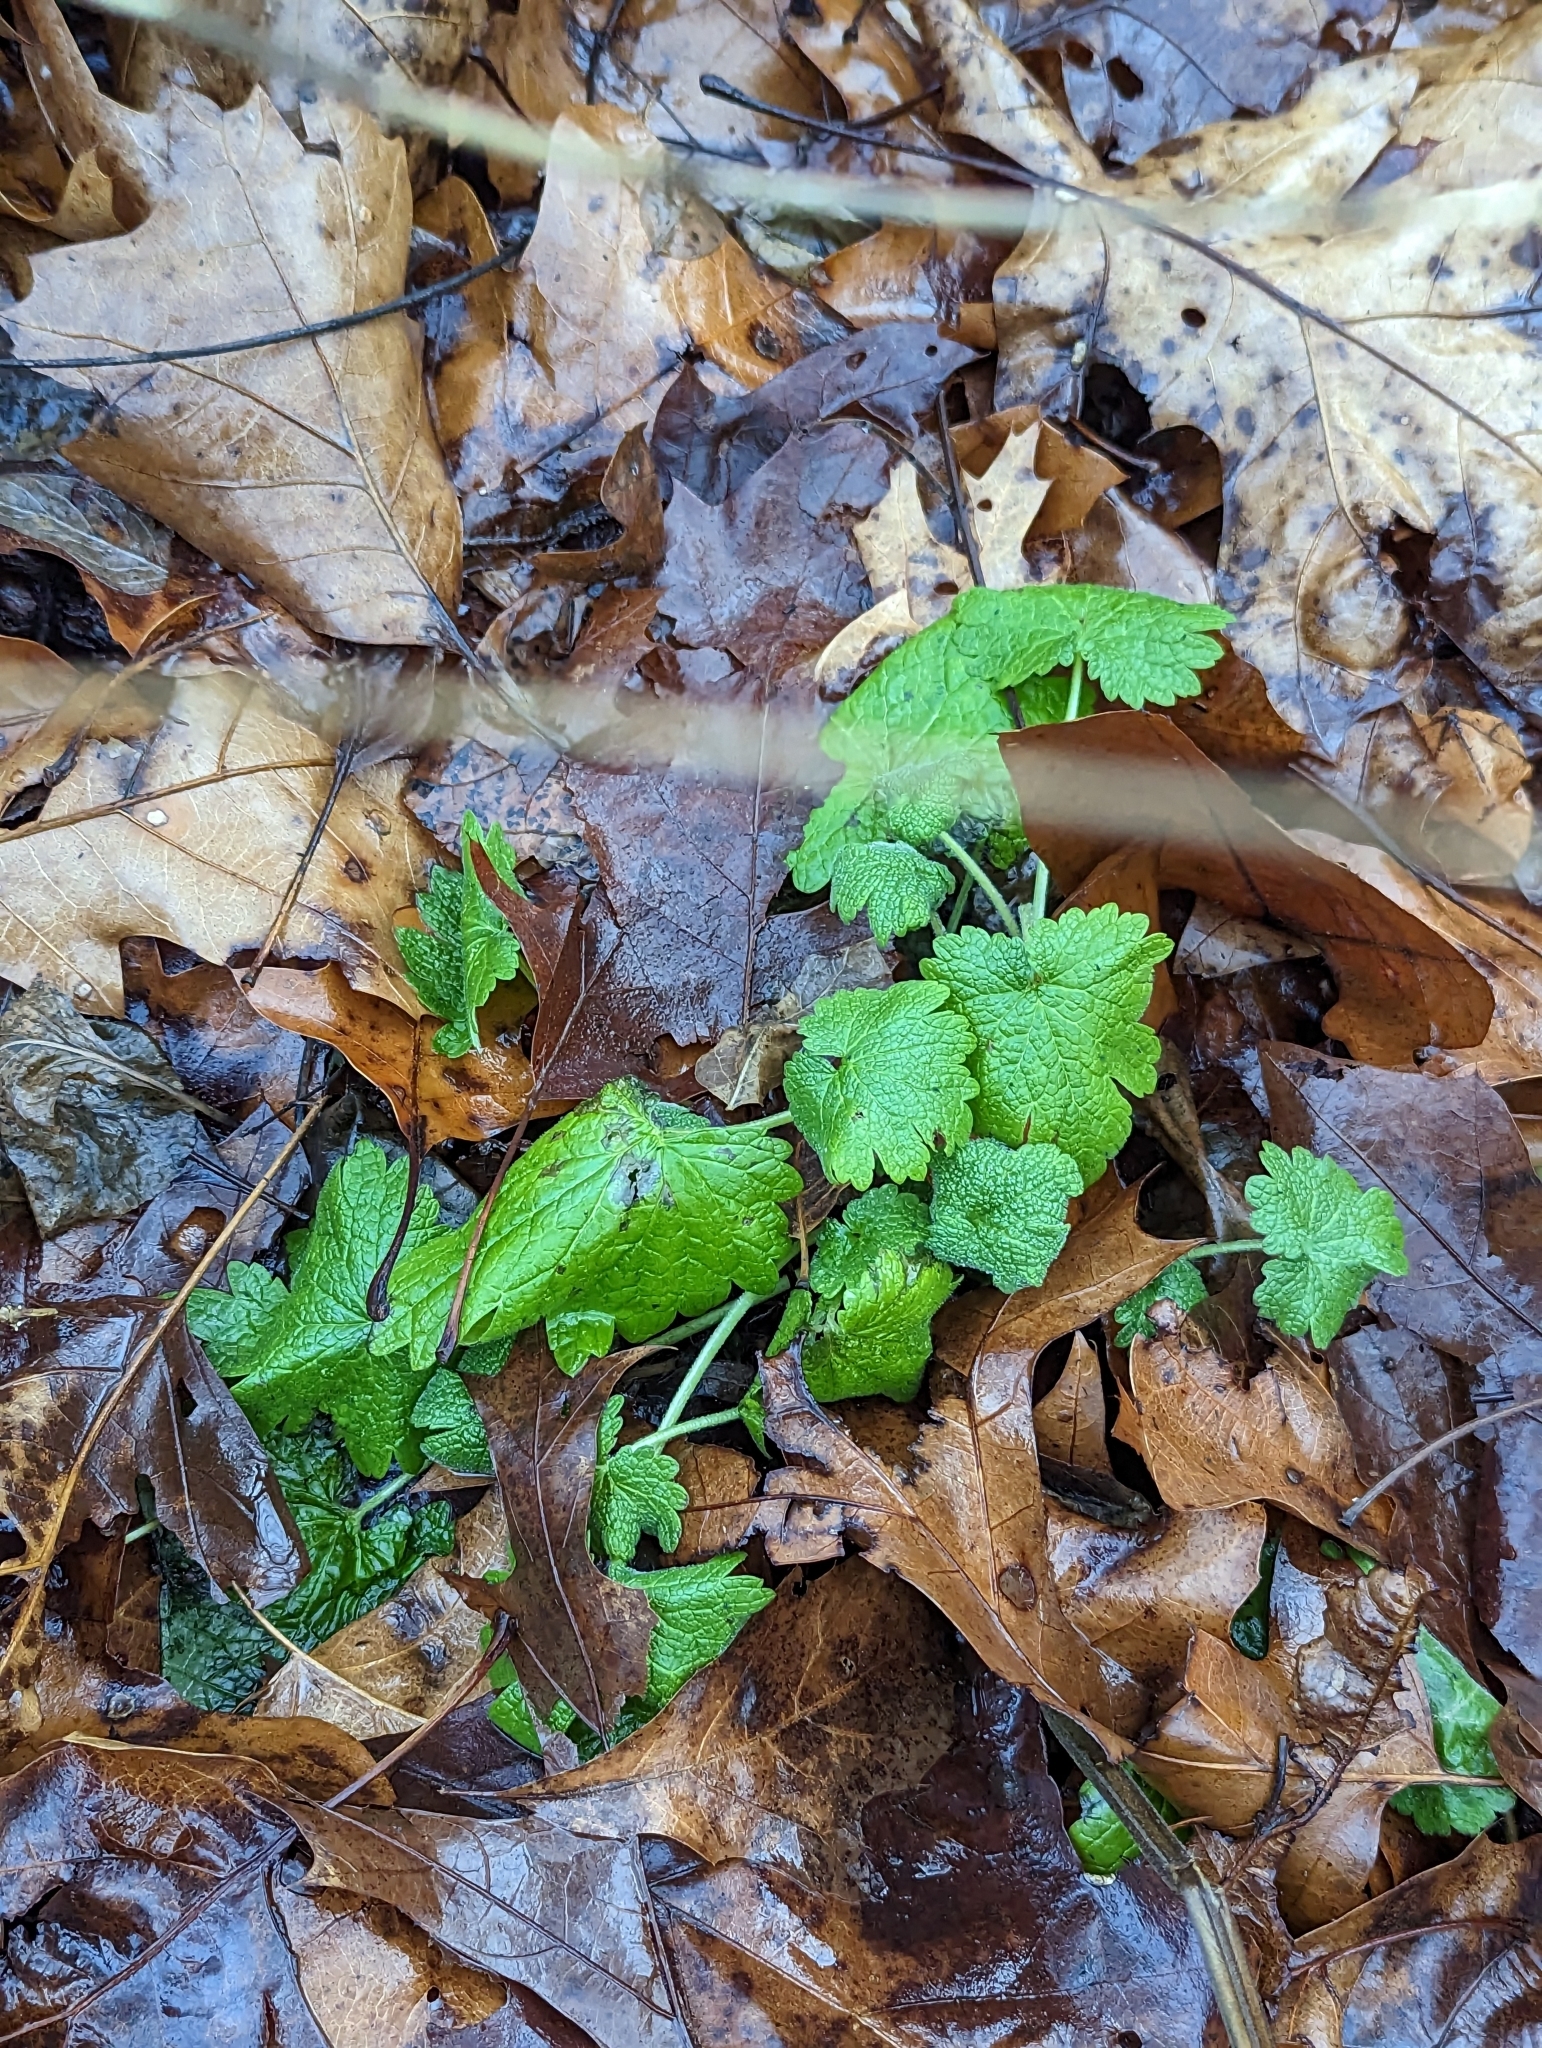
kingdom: Plantae
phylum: Tracheophyta
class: Magnoliopsida
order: Lamiales
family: Lamiaceae
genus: Leonurus
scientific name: Leonurus cardiaca
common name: Motherwort
